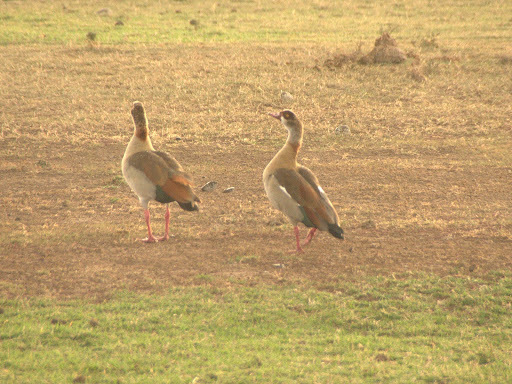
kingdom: Animalia
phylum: Chordata
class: Aves
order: Anseriformes
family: Anatidae
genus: Alopochen
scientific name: Alopochen aegyptiaca
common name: Egyptian goose
